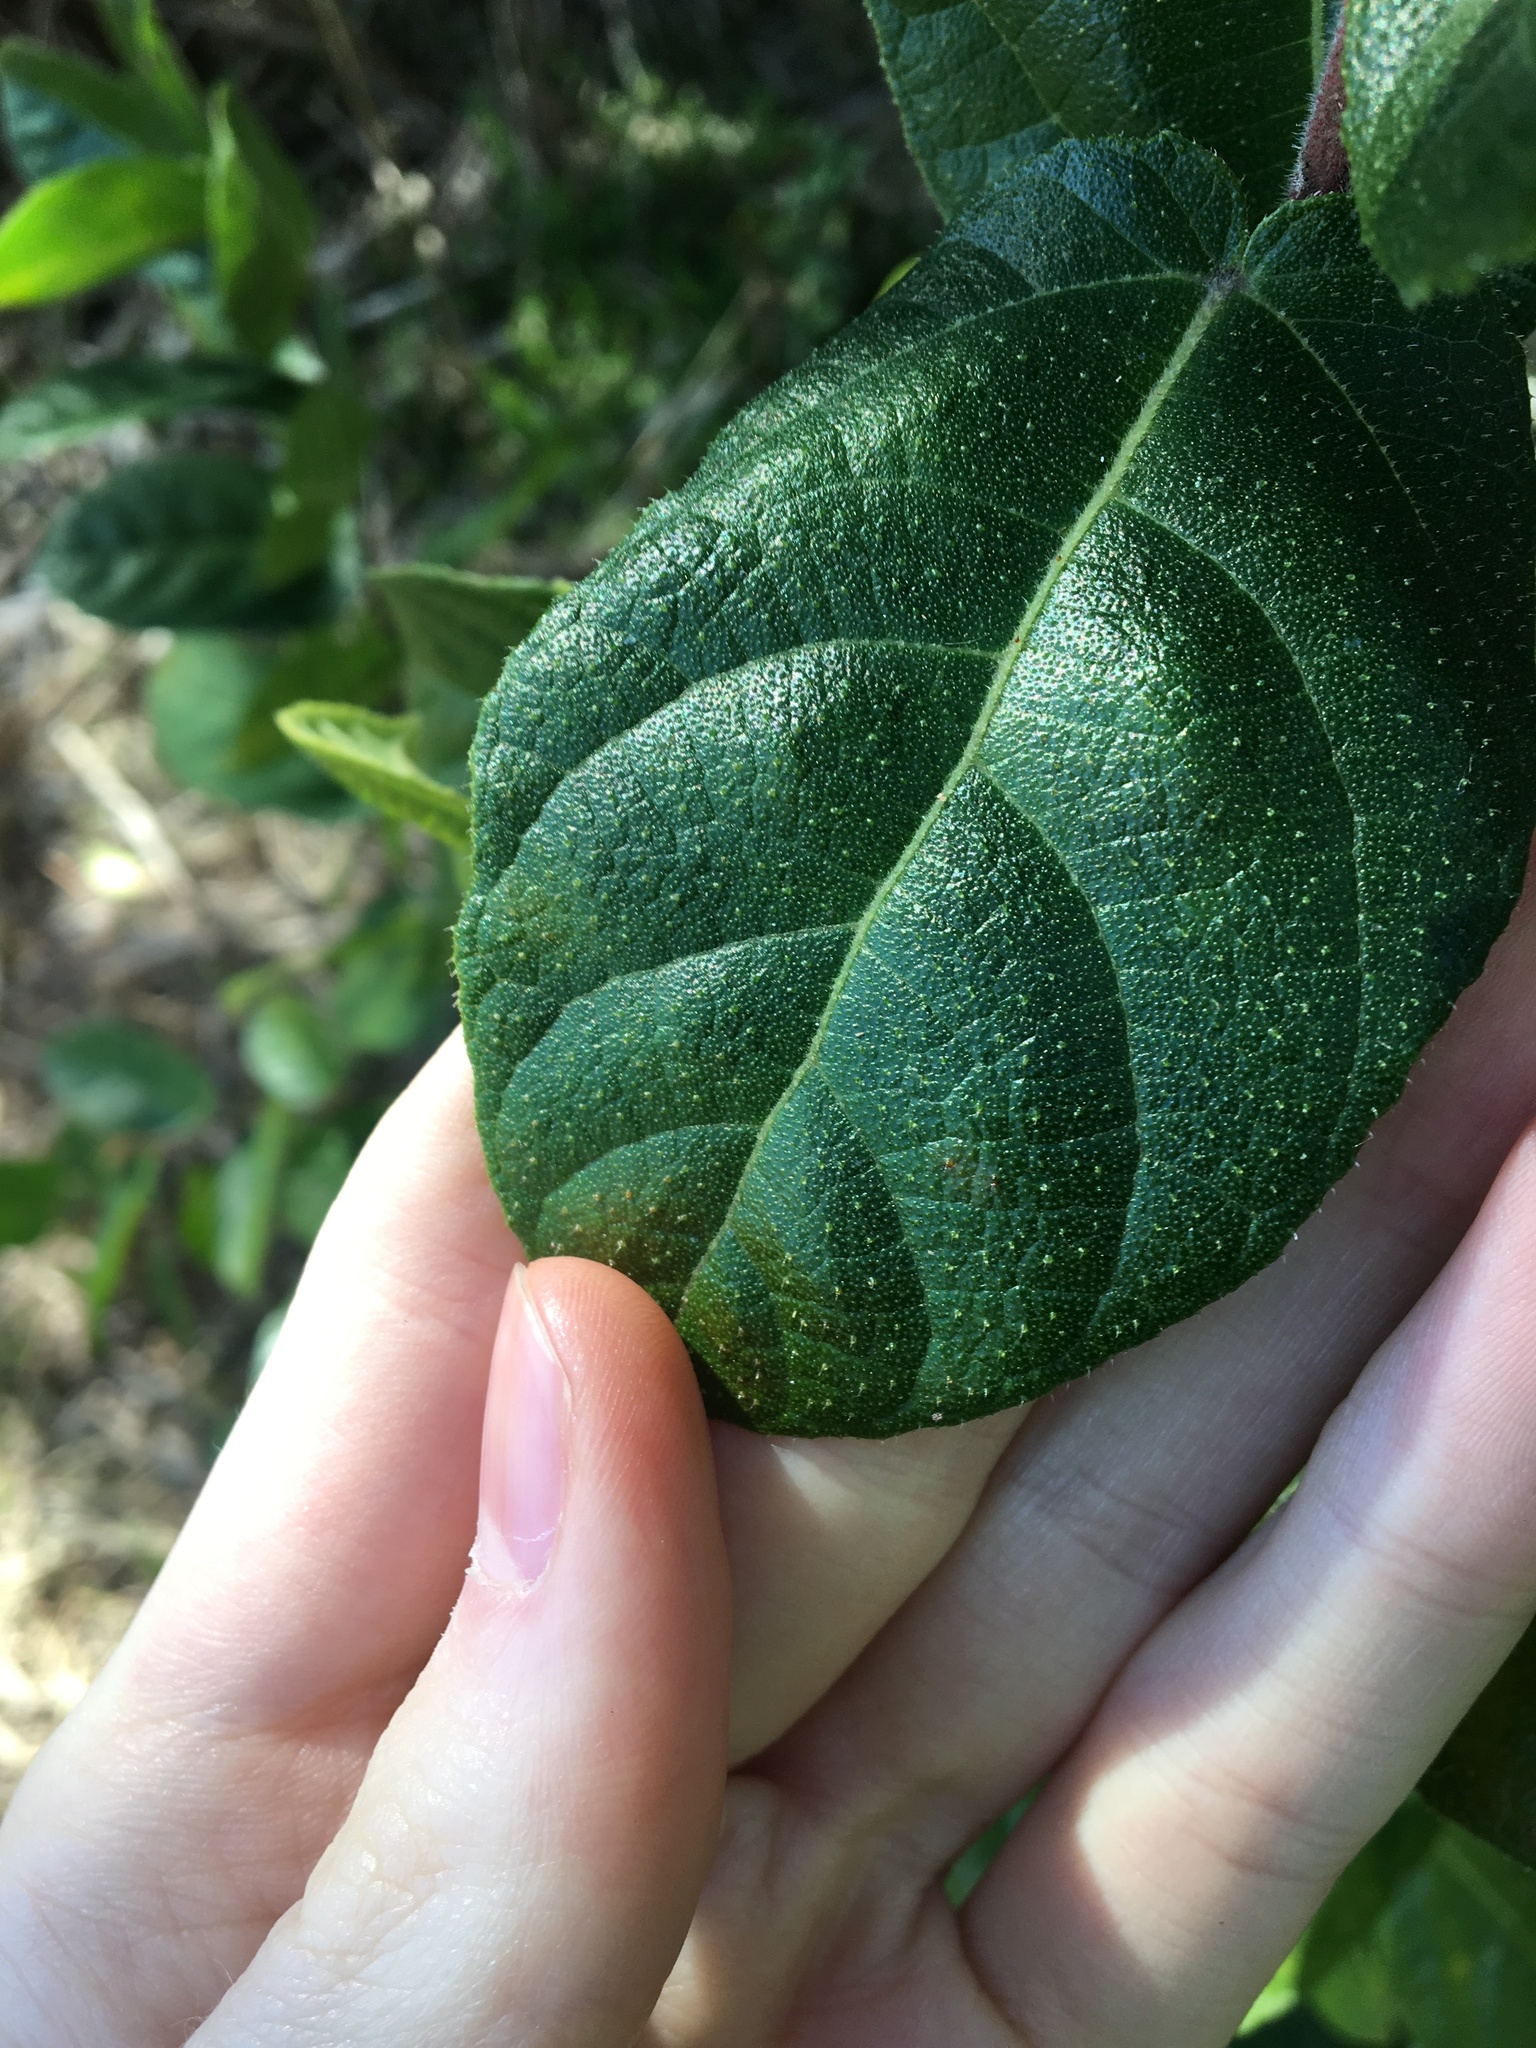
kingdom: Plantae
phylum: Tracheophyta
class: Magnoliopsida
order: Rosales
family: Moraceae
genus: Ficus
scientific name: Ficus coronata
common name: Creek sandpaper fig
